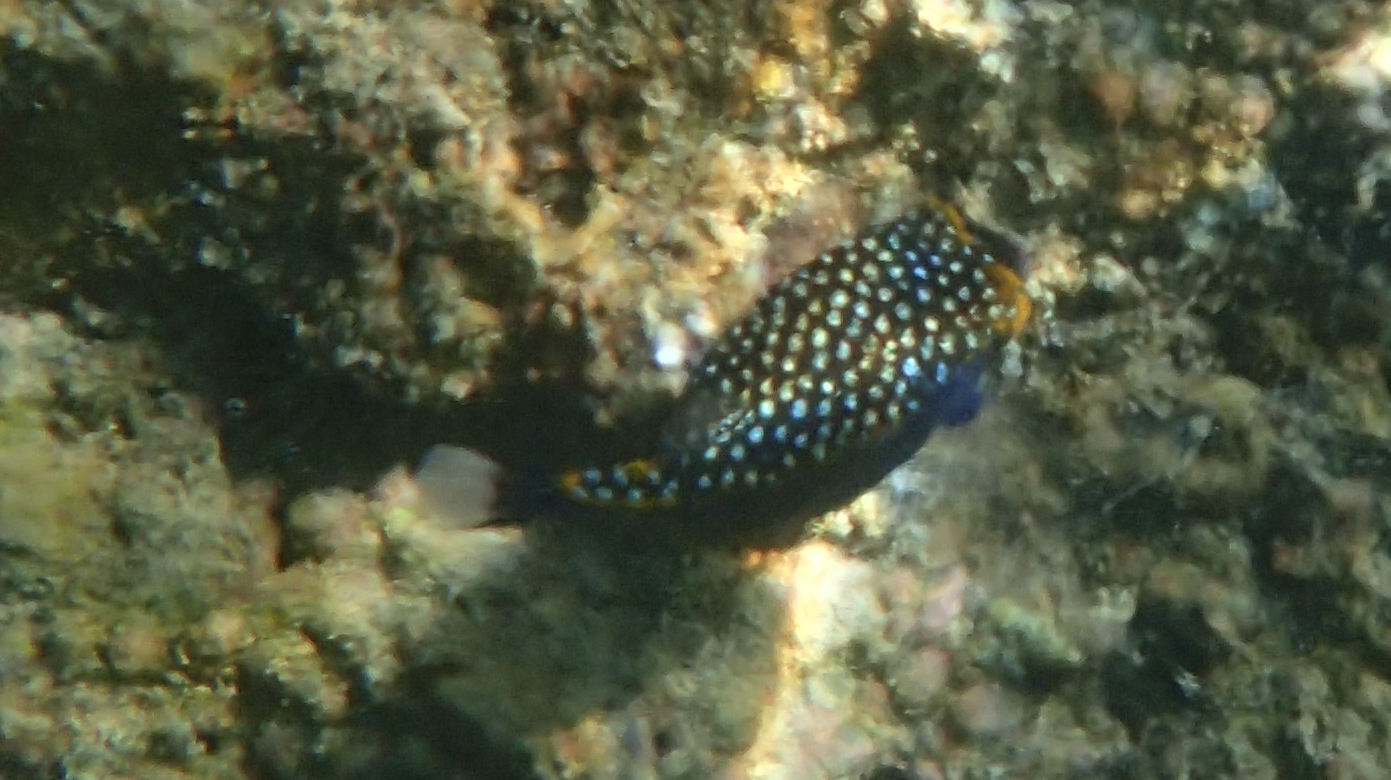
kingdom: Animalia
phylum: Chordata
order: Tetraodontiformes
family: Ostraciidae
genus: Ostracion
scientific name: Ostracion meleagris
